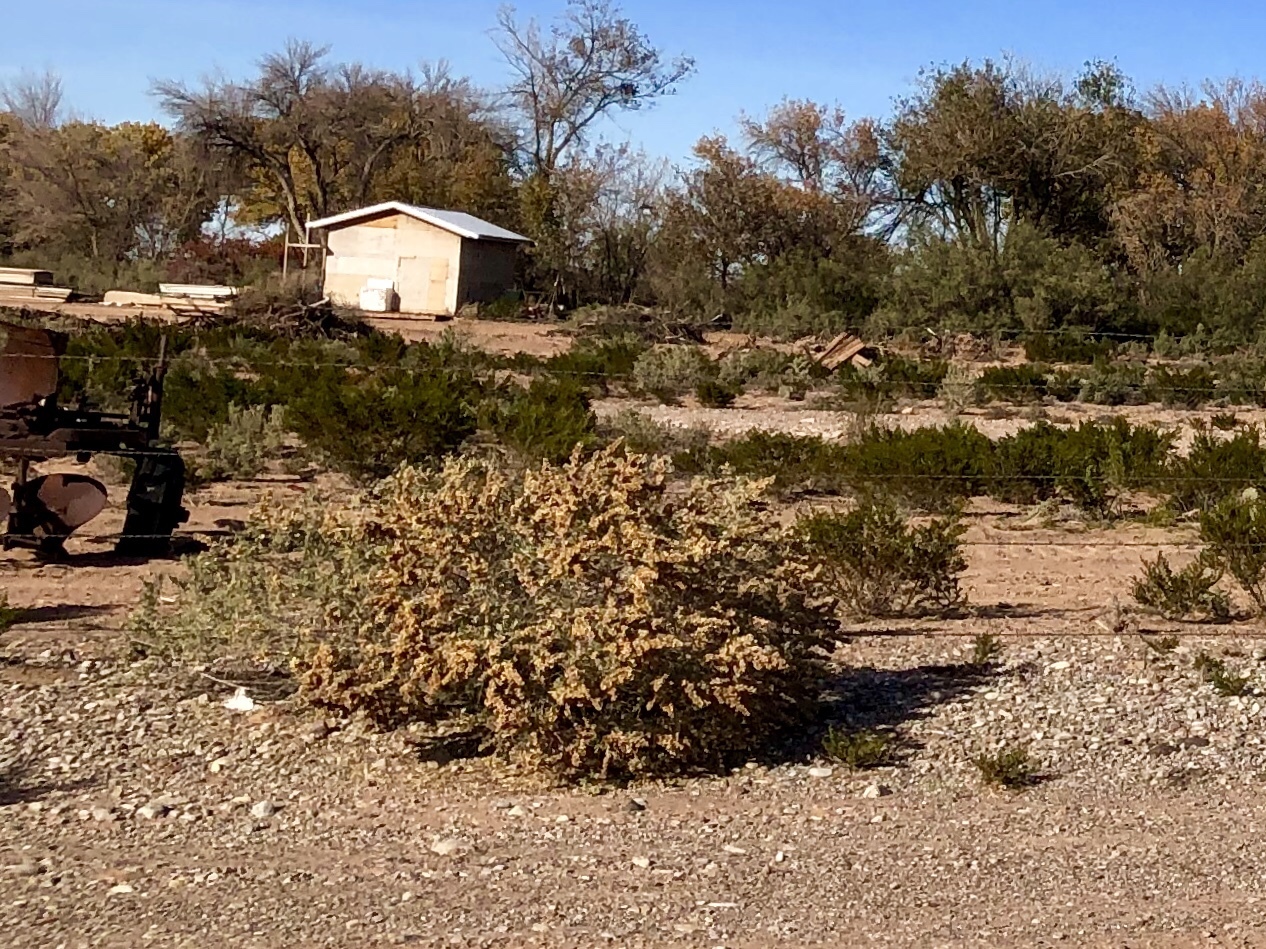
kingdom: Plantae
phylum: Tracheophyta
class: Magnoliopsida
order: Caryophyllales
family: Amaranthaceae
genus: Atriplex
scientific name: Atriplex canescens
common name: Four-wing saltbush
